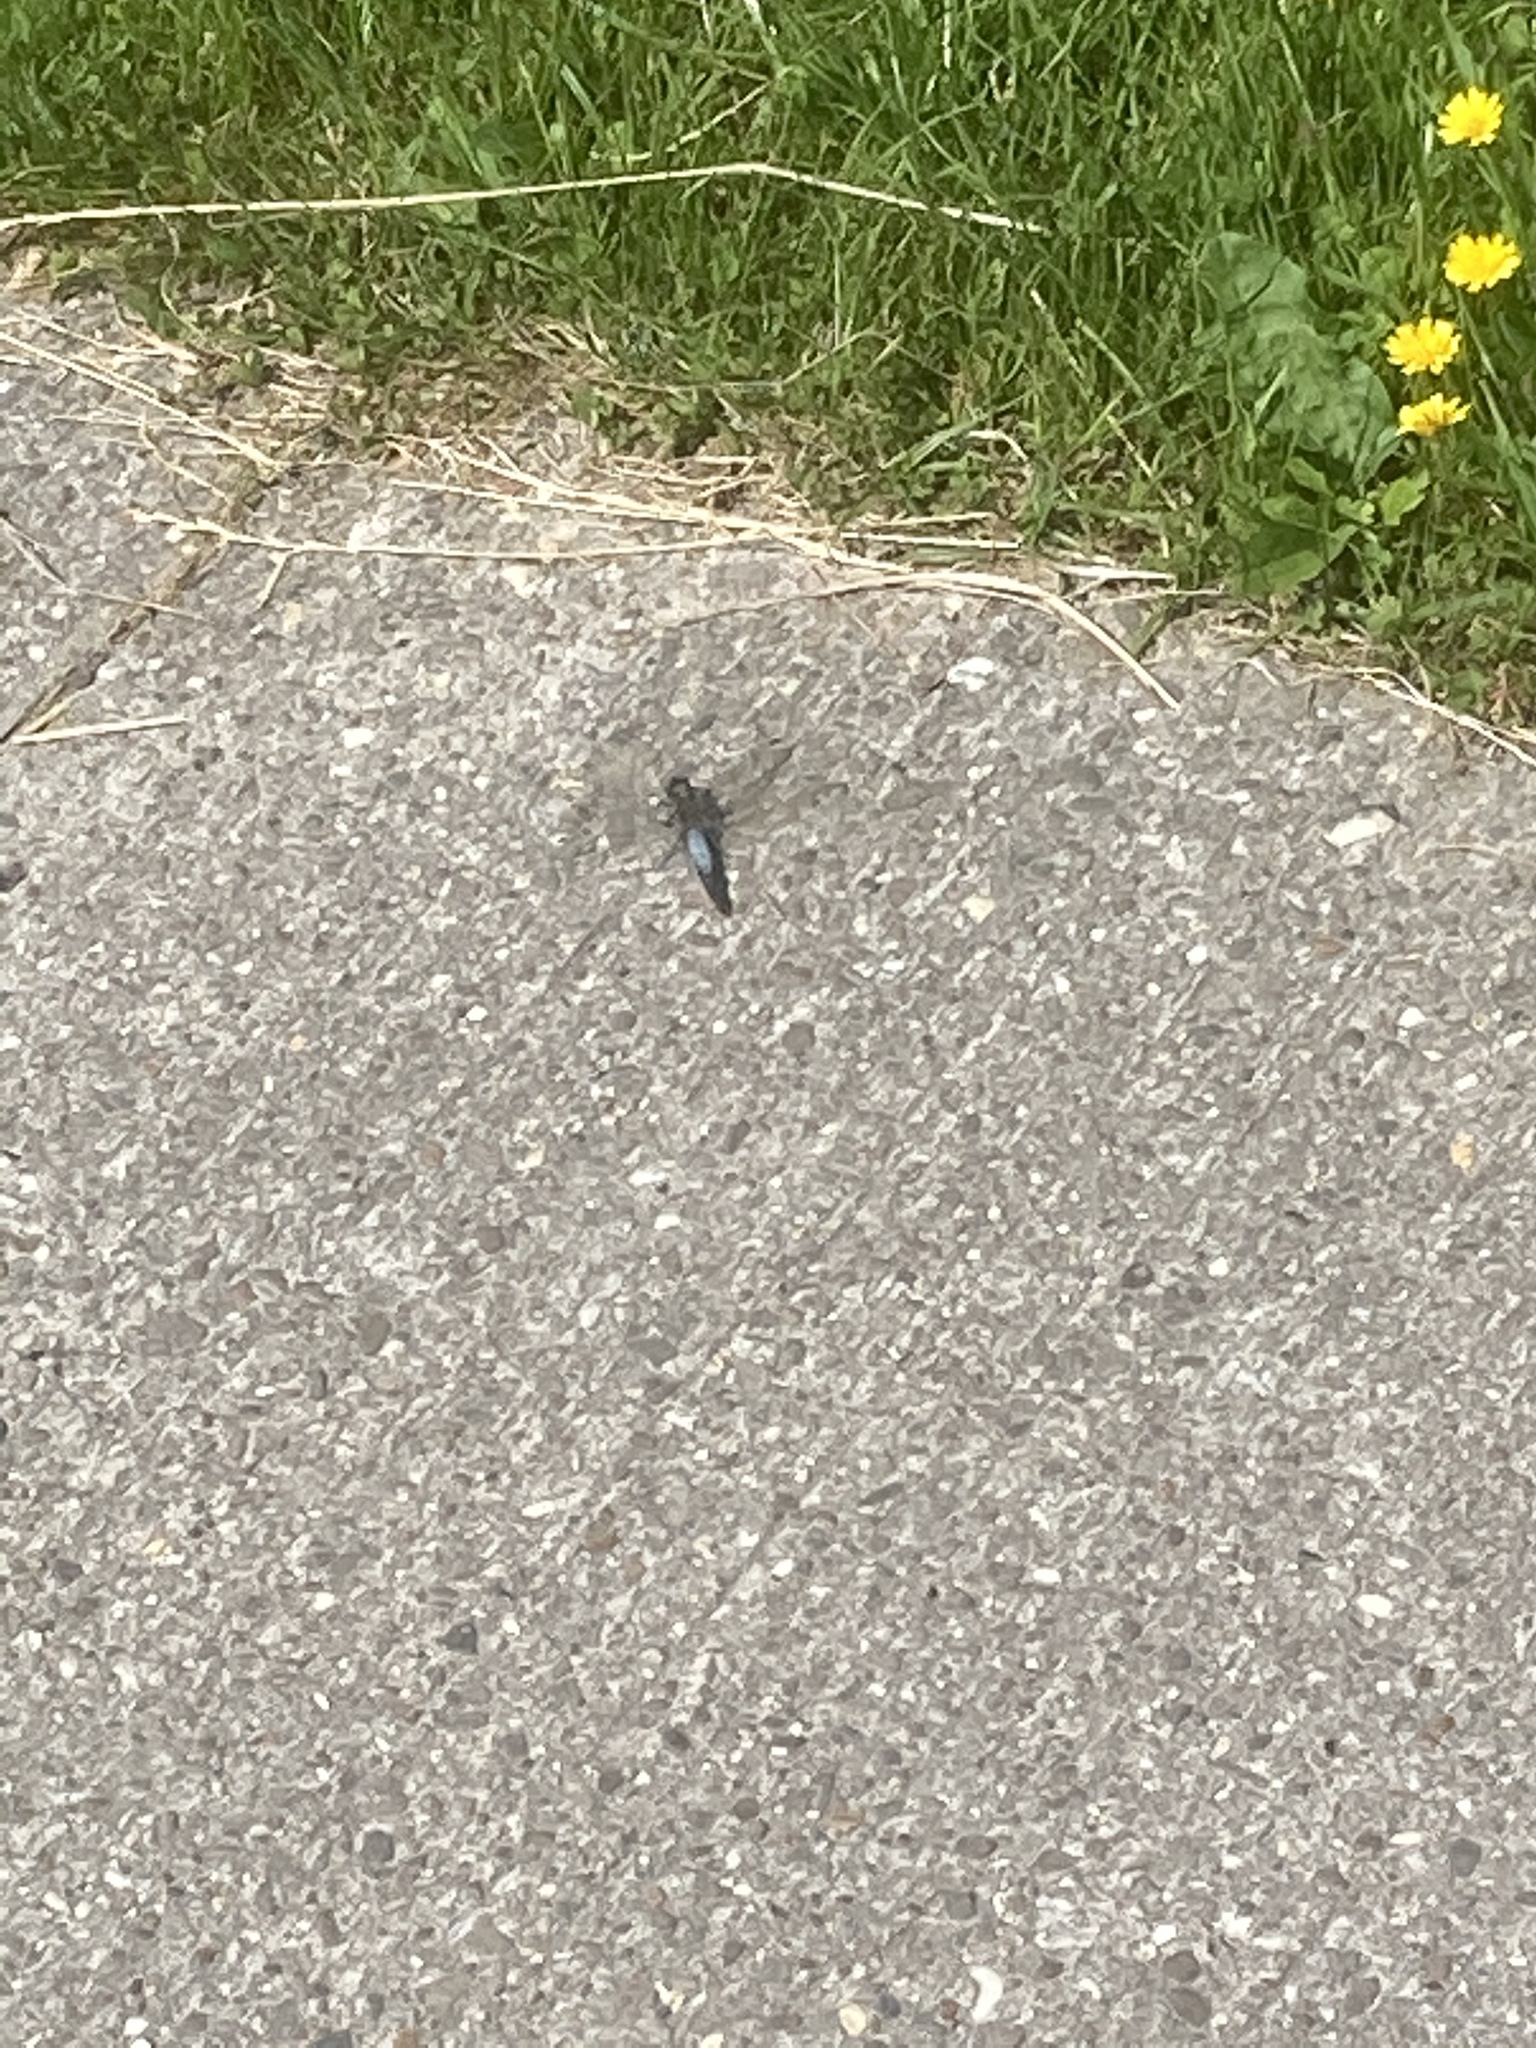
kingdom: Animalia
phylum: Arthropoda
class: Insecta
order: Odonata
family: Libellulidae
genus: Orthetrum
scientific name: Orthetrum cancellatum
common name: Black-tailed skimmer
